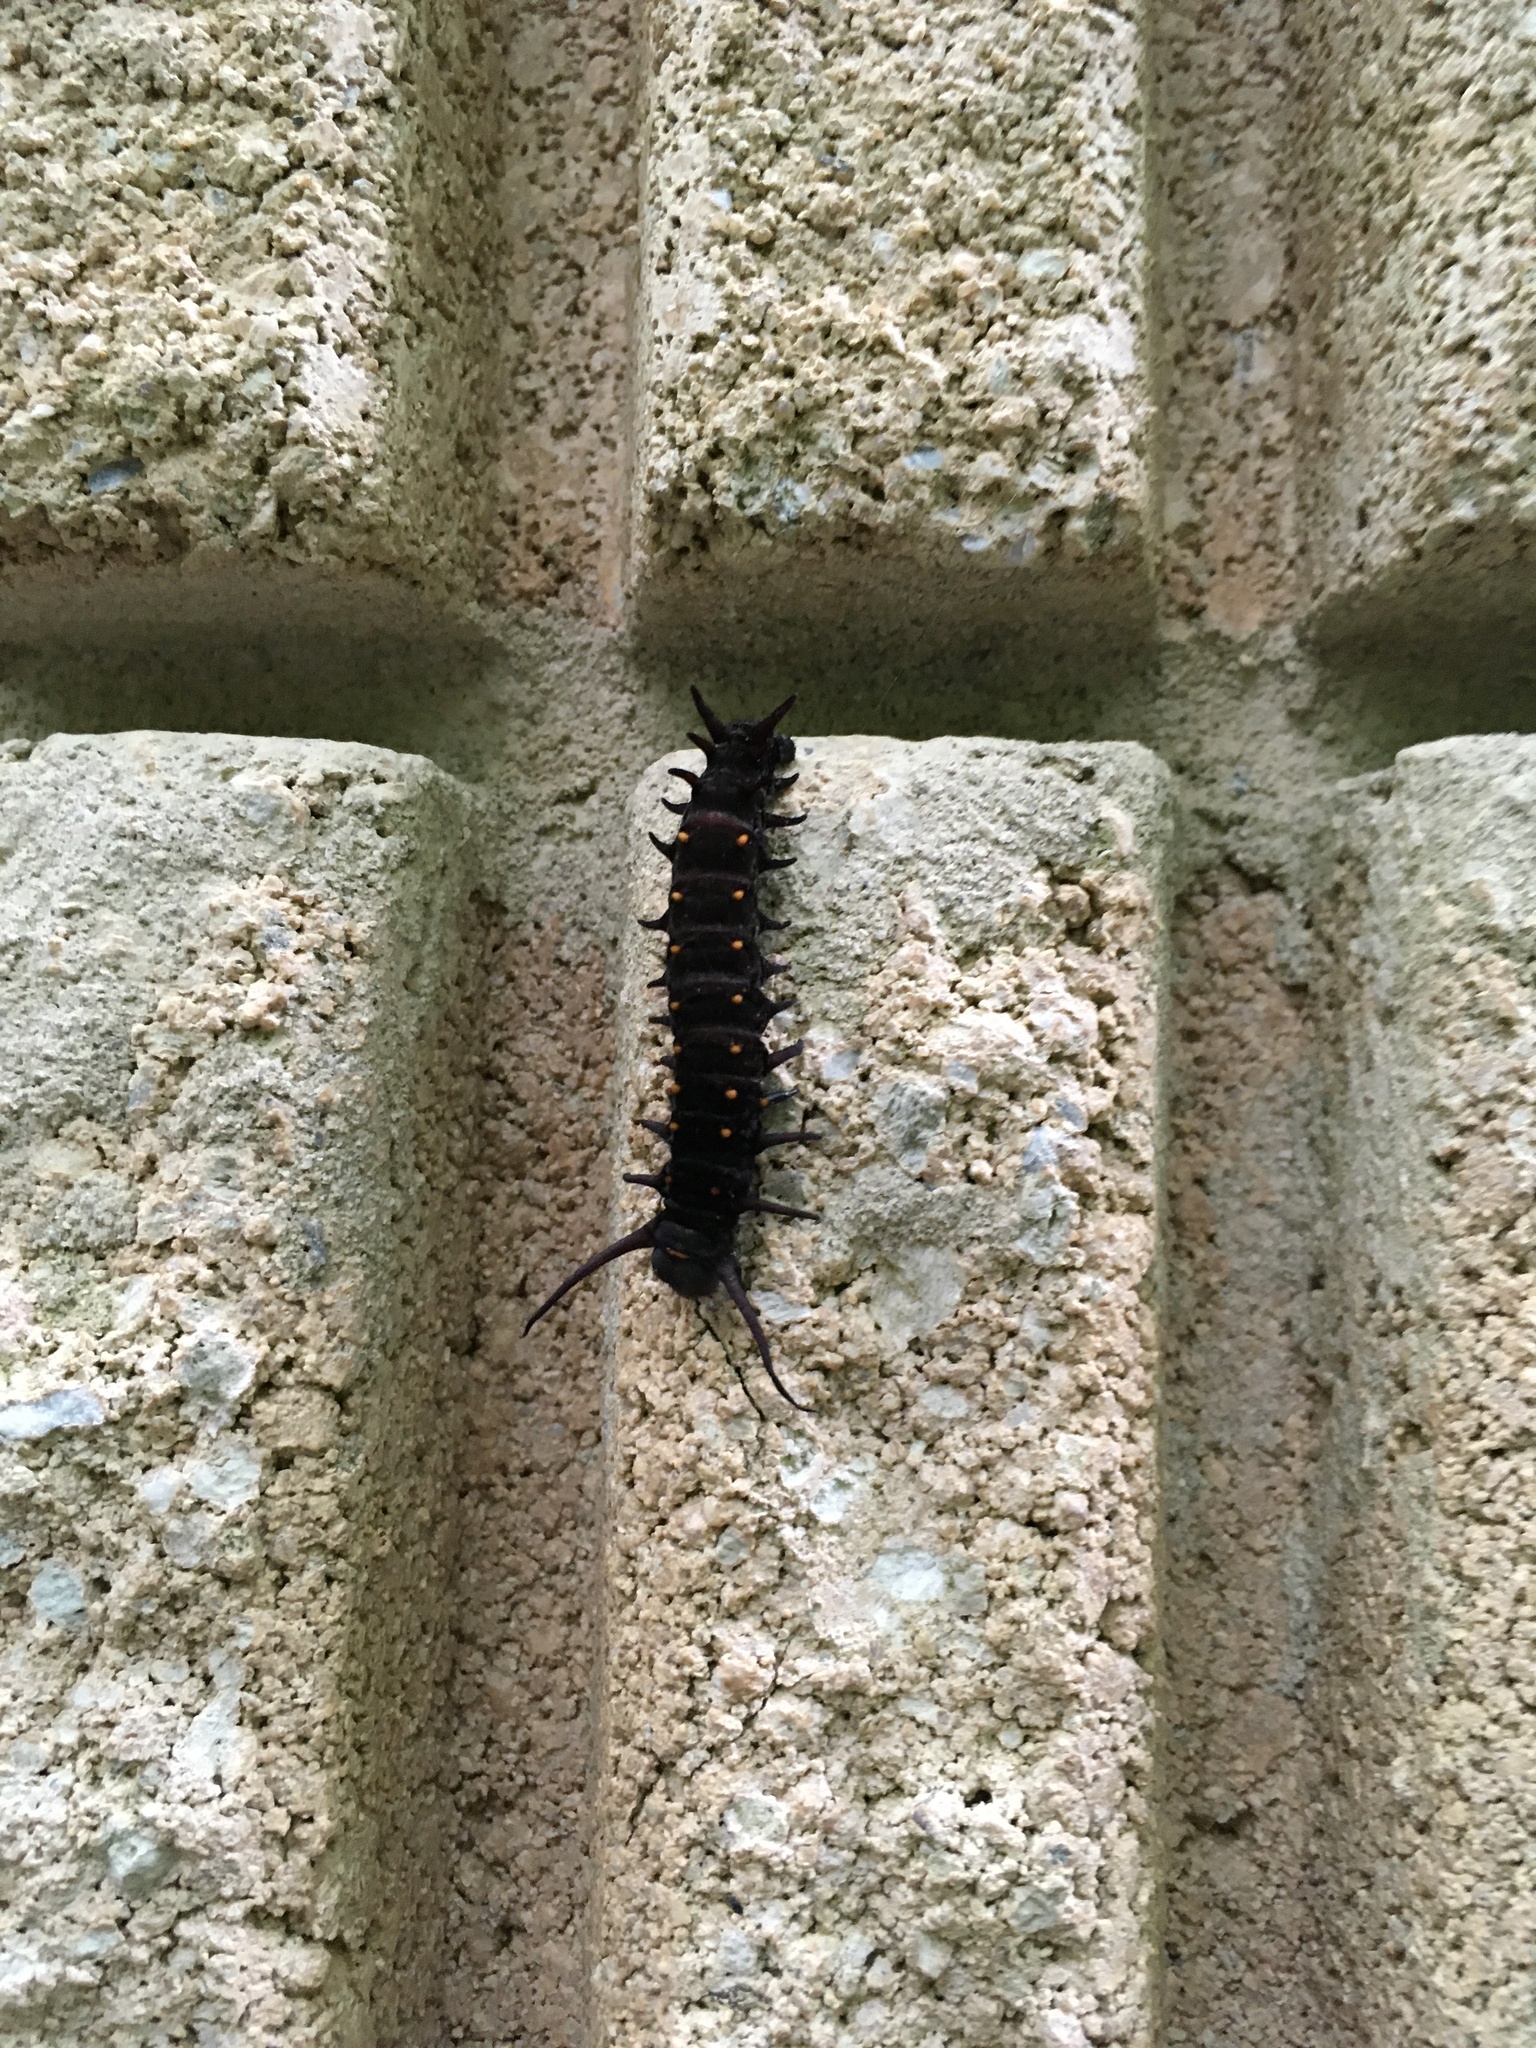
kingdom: Animalia
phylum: Arthropoda
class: Insecta
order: Lepidoptera
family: Papilionidae
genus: Battus
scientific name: Battus philenor
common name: Pipevine swallowtail
